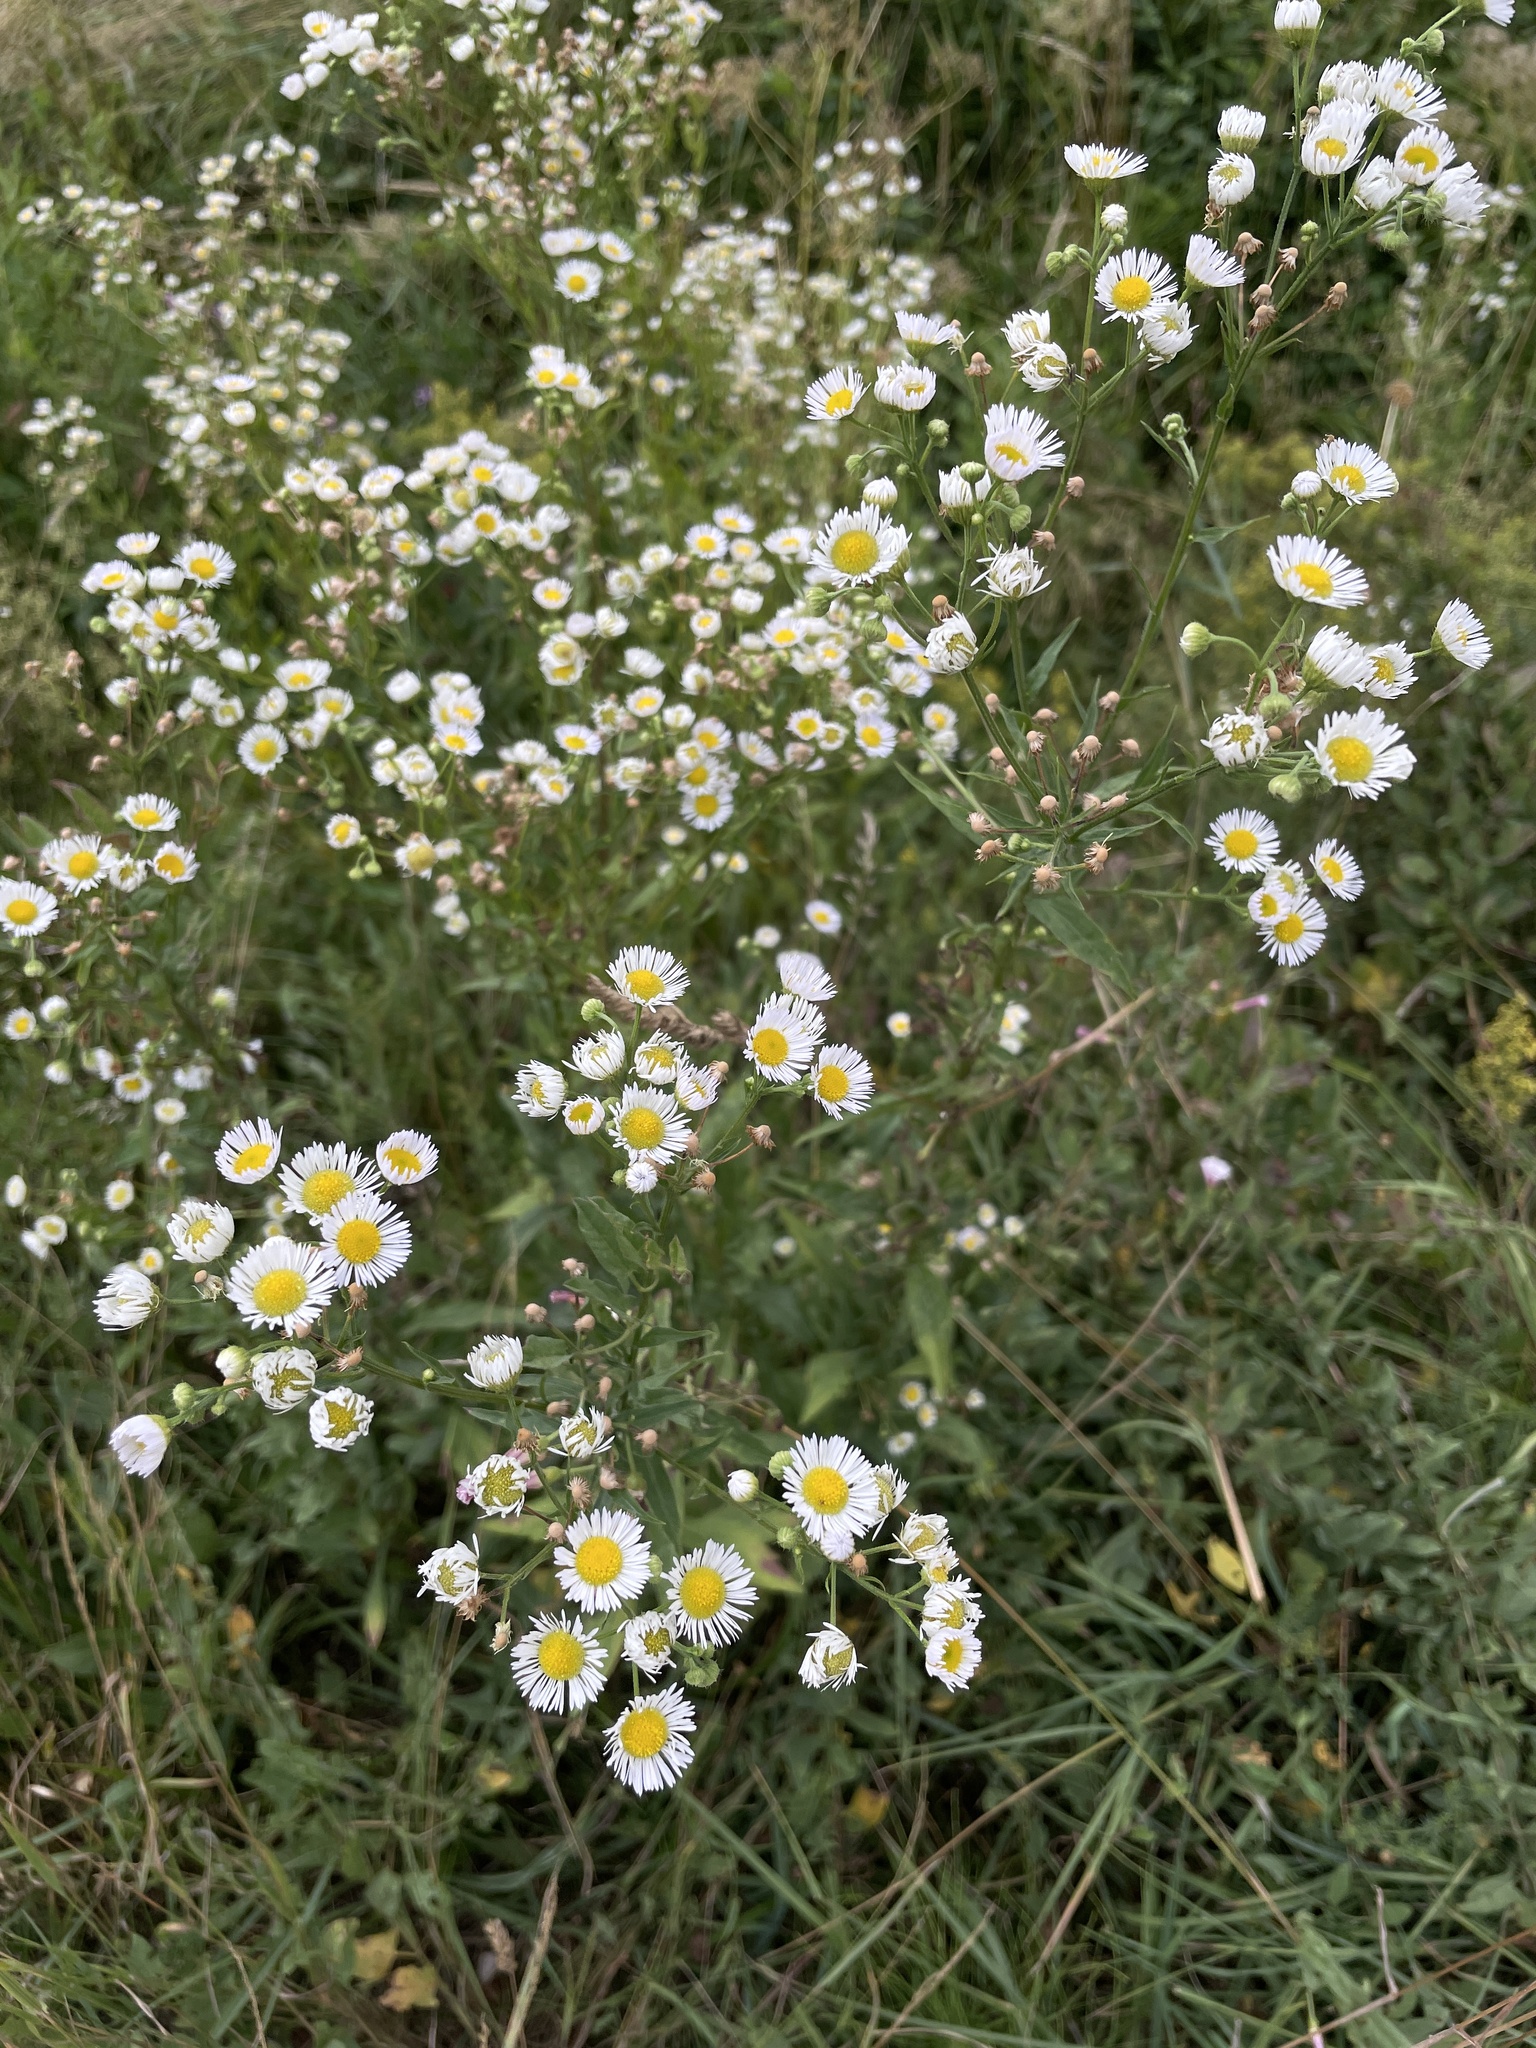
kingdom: Plantae
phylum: Tracheophyta
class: Magnoliopsida
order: Asterales
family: Asteraceae
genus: Erigeron
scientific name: Erigeron annuus
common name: Tall fleabane
